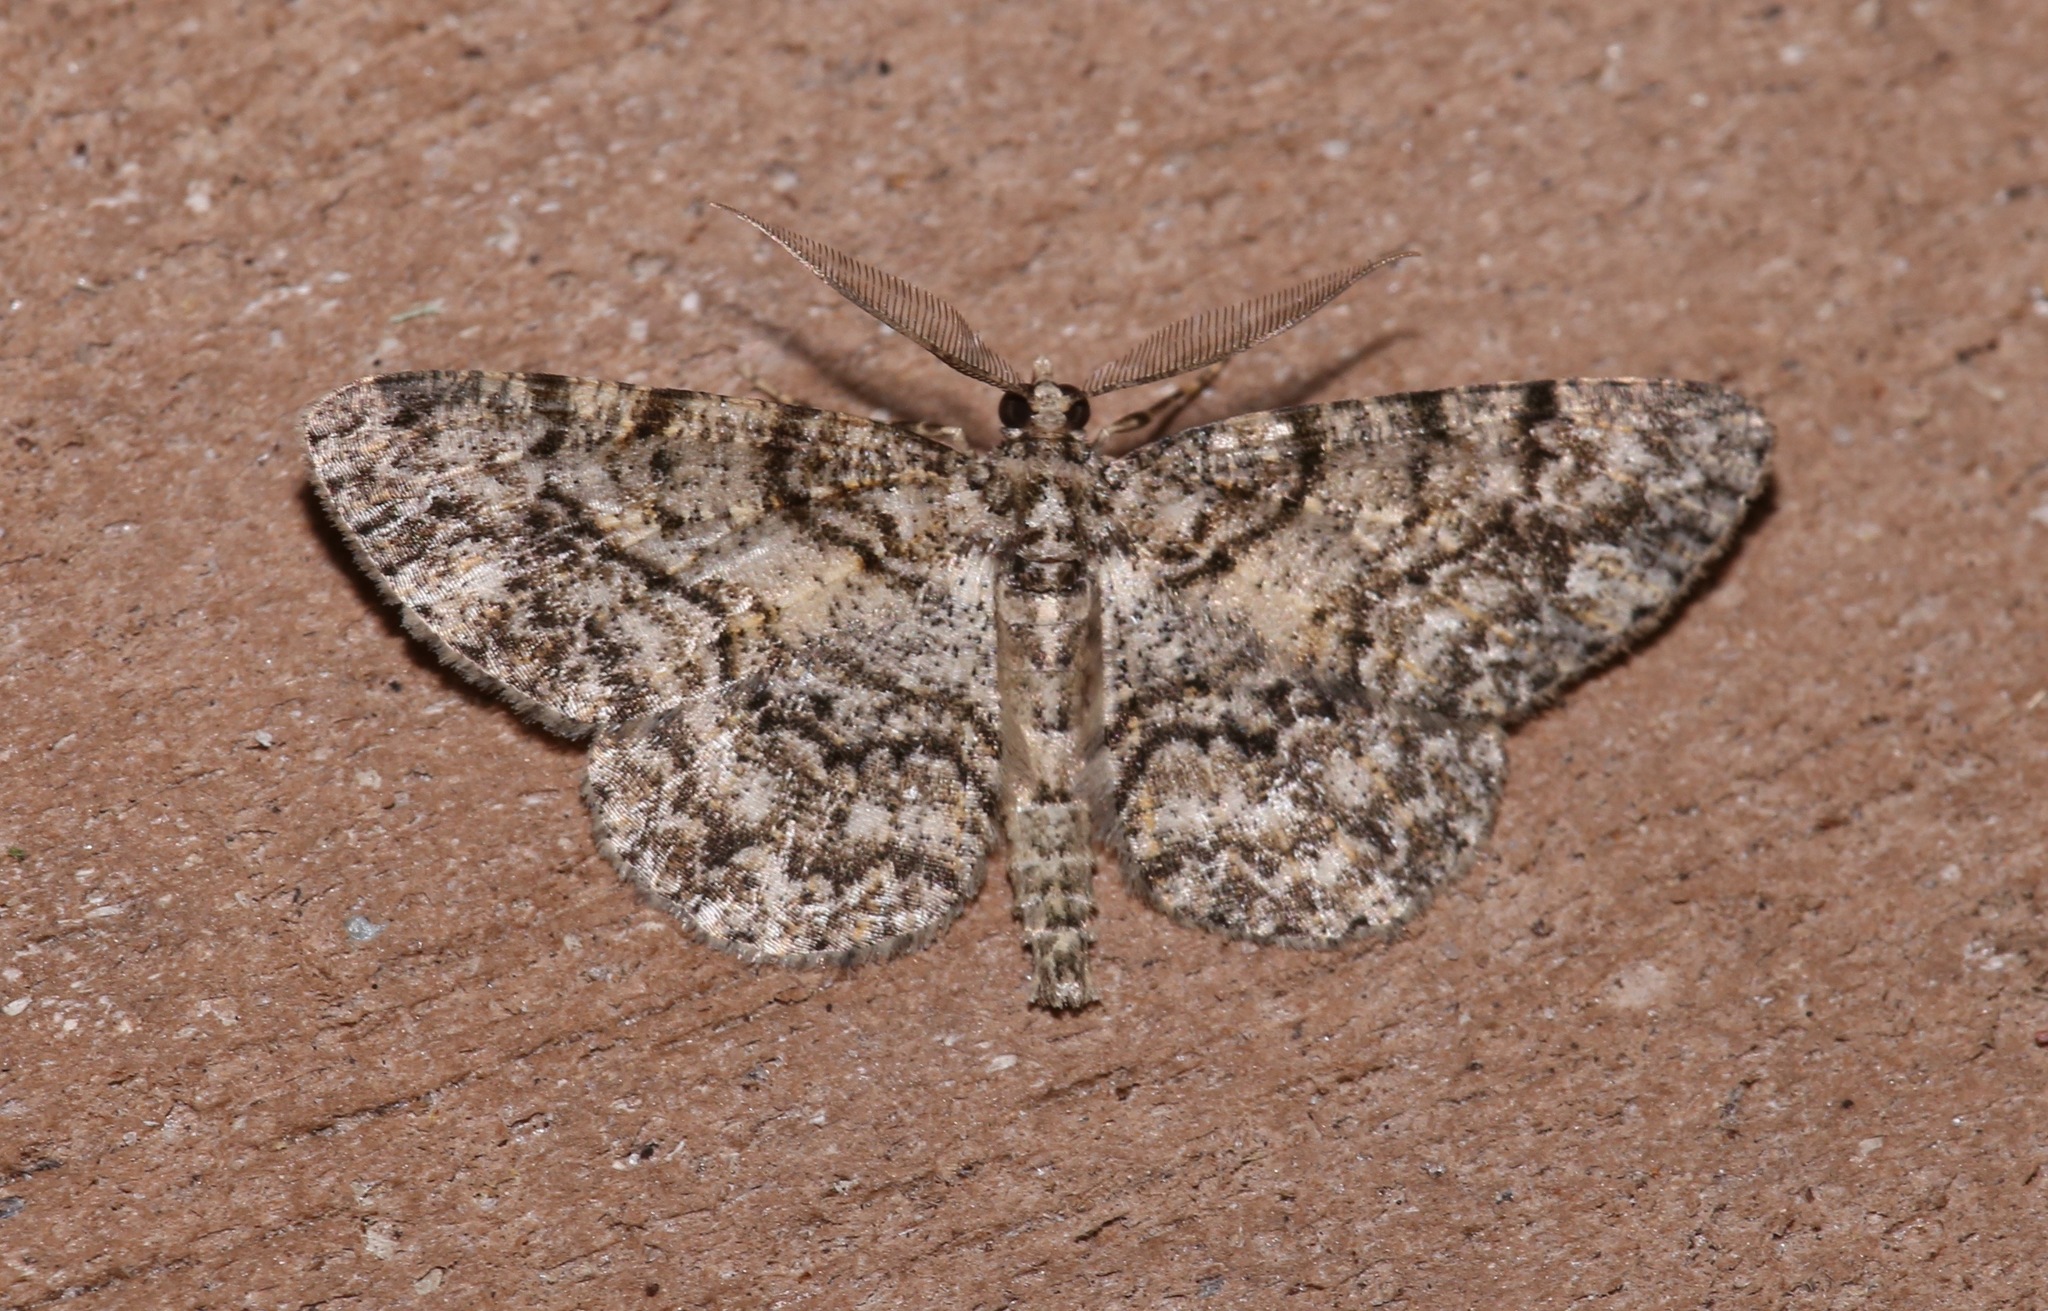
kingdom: Animalia
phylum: Arthropoda
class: Insecta
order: Lepidoptera
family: Geometridae
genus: Protoboarmia
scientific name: Protoboarmia porcelaria
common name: Porcelain gray
